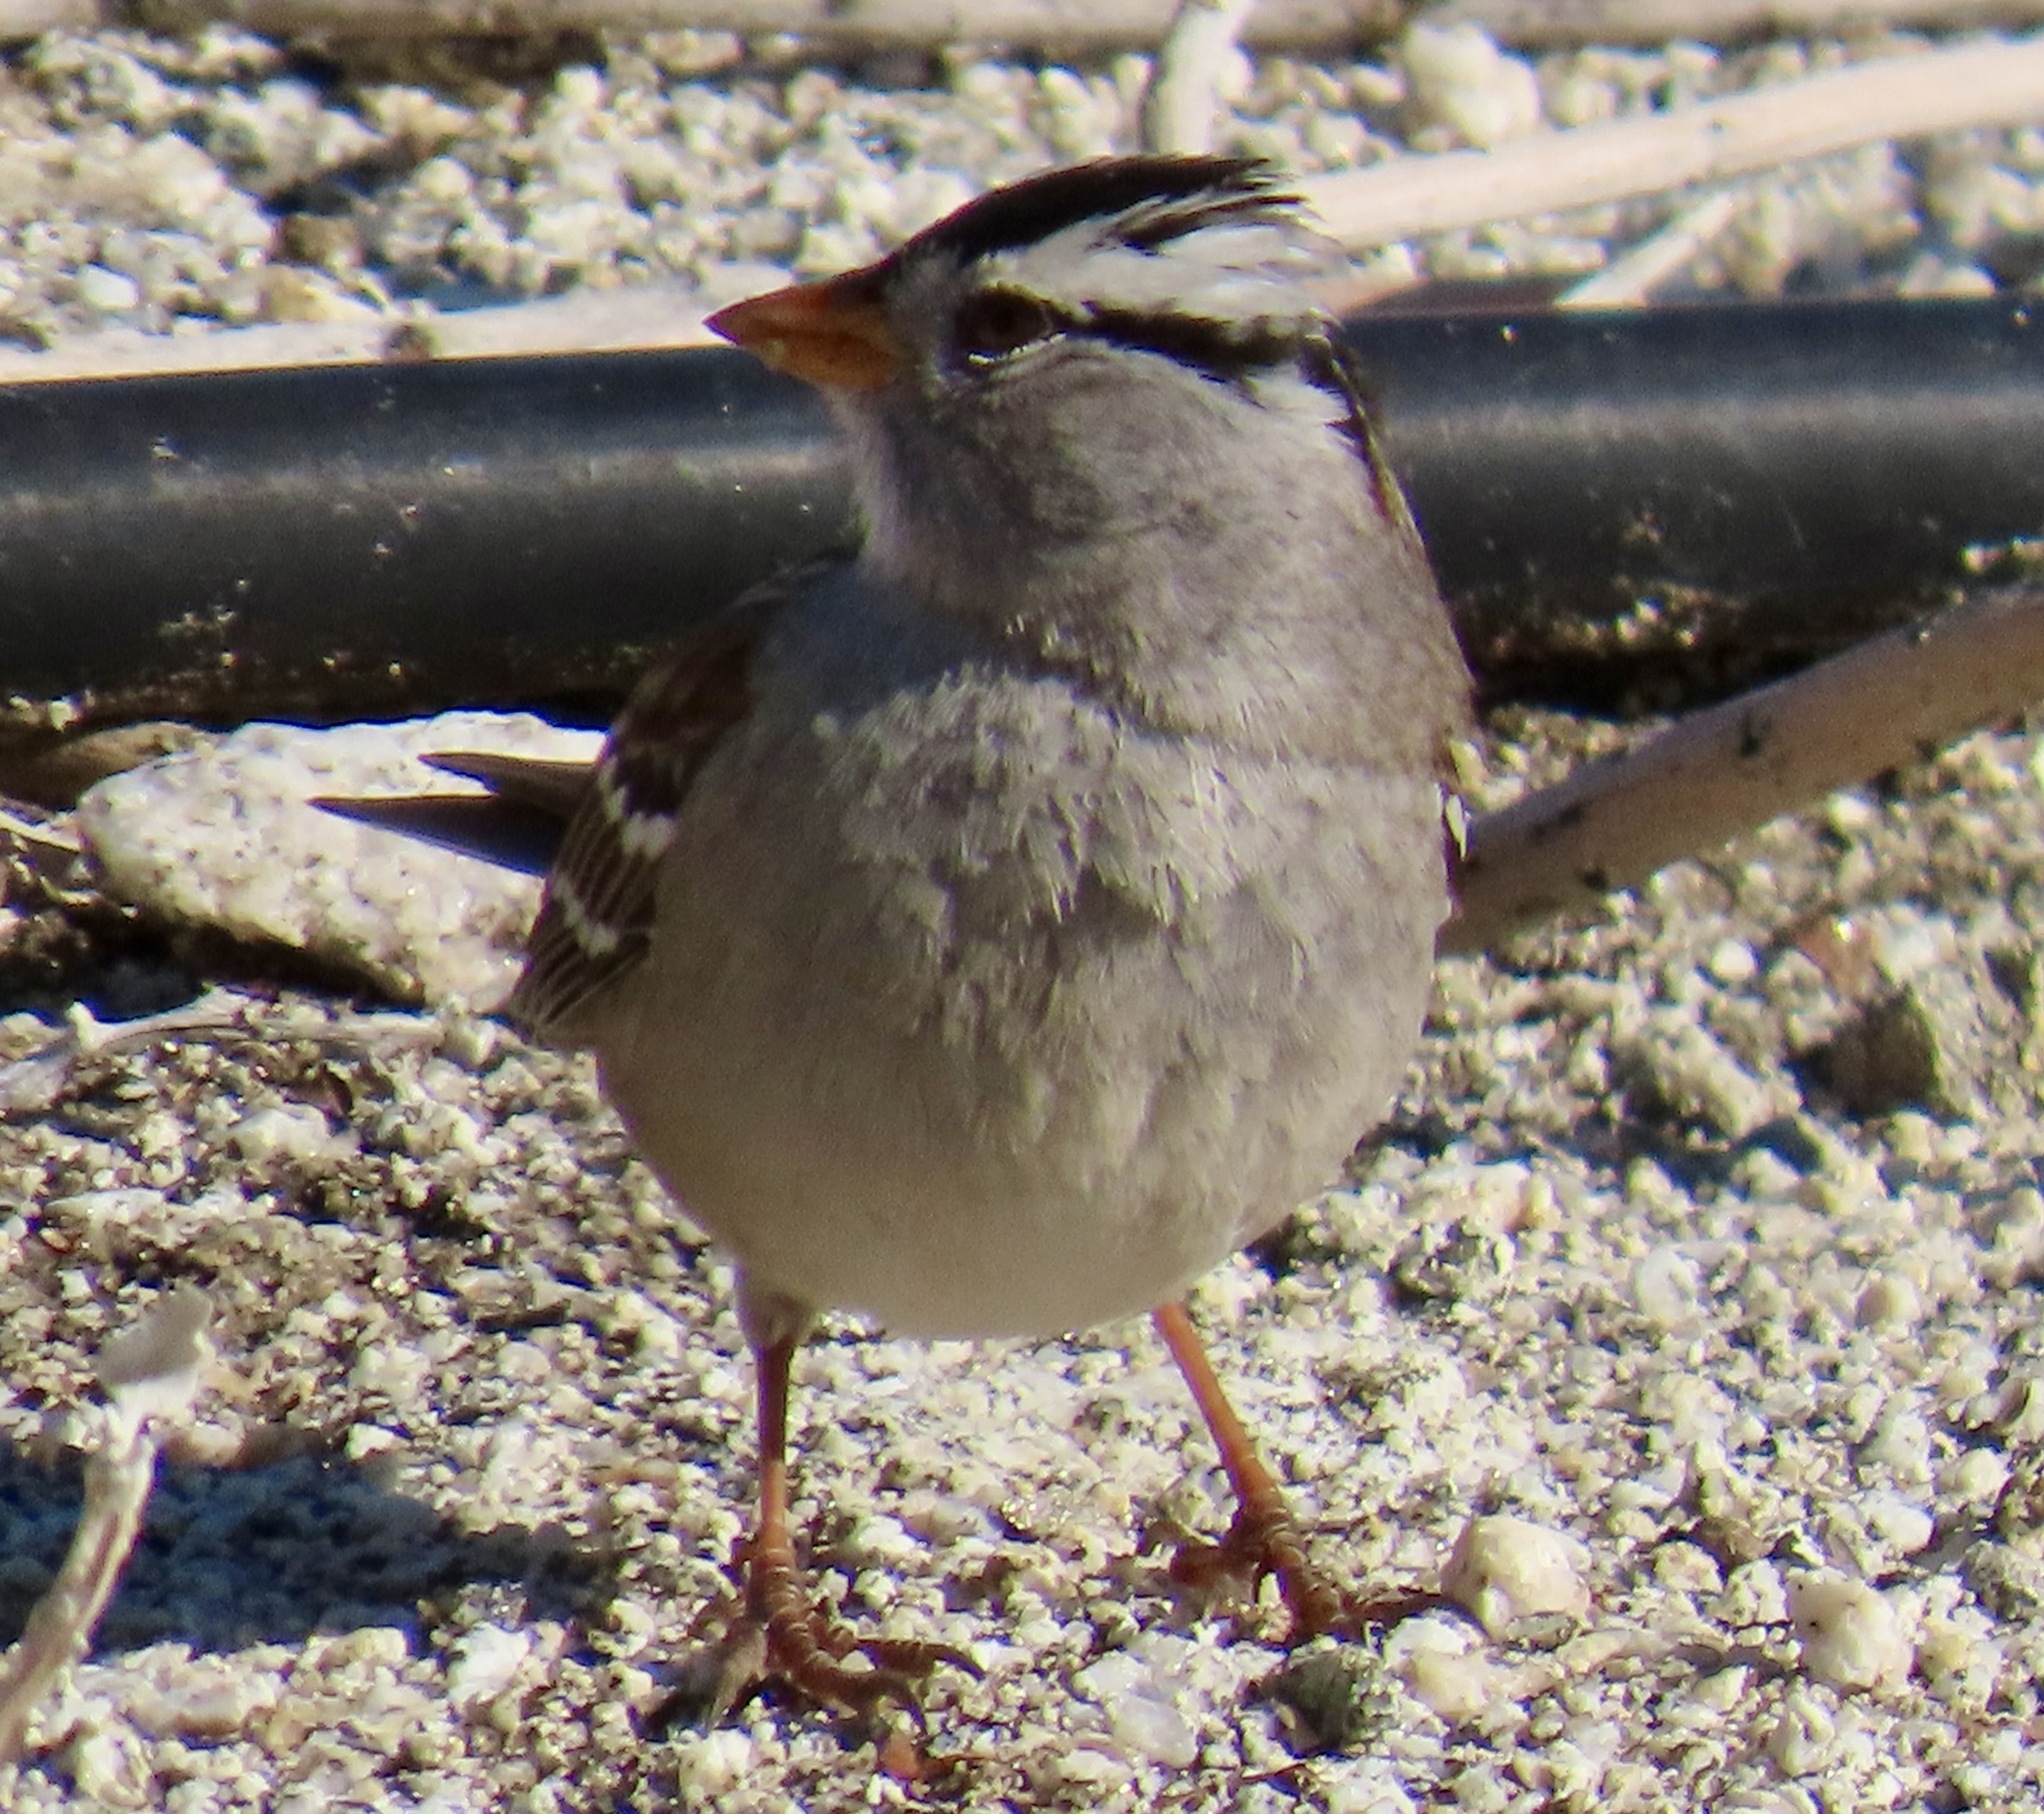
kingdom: Animalia
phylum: Chordata
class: Aves
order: Passeriformes
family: Passerellidae
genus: Zonotrichia
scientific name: Zonotrichia leucophrys
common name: White-crowned sparrow
